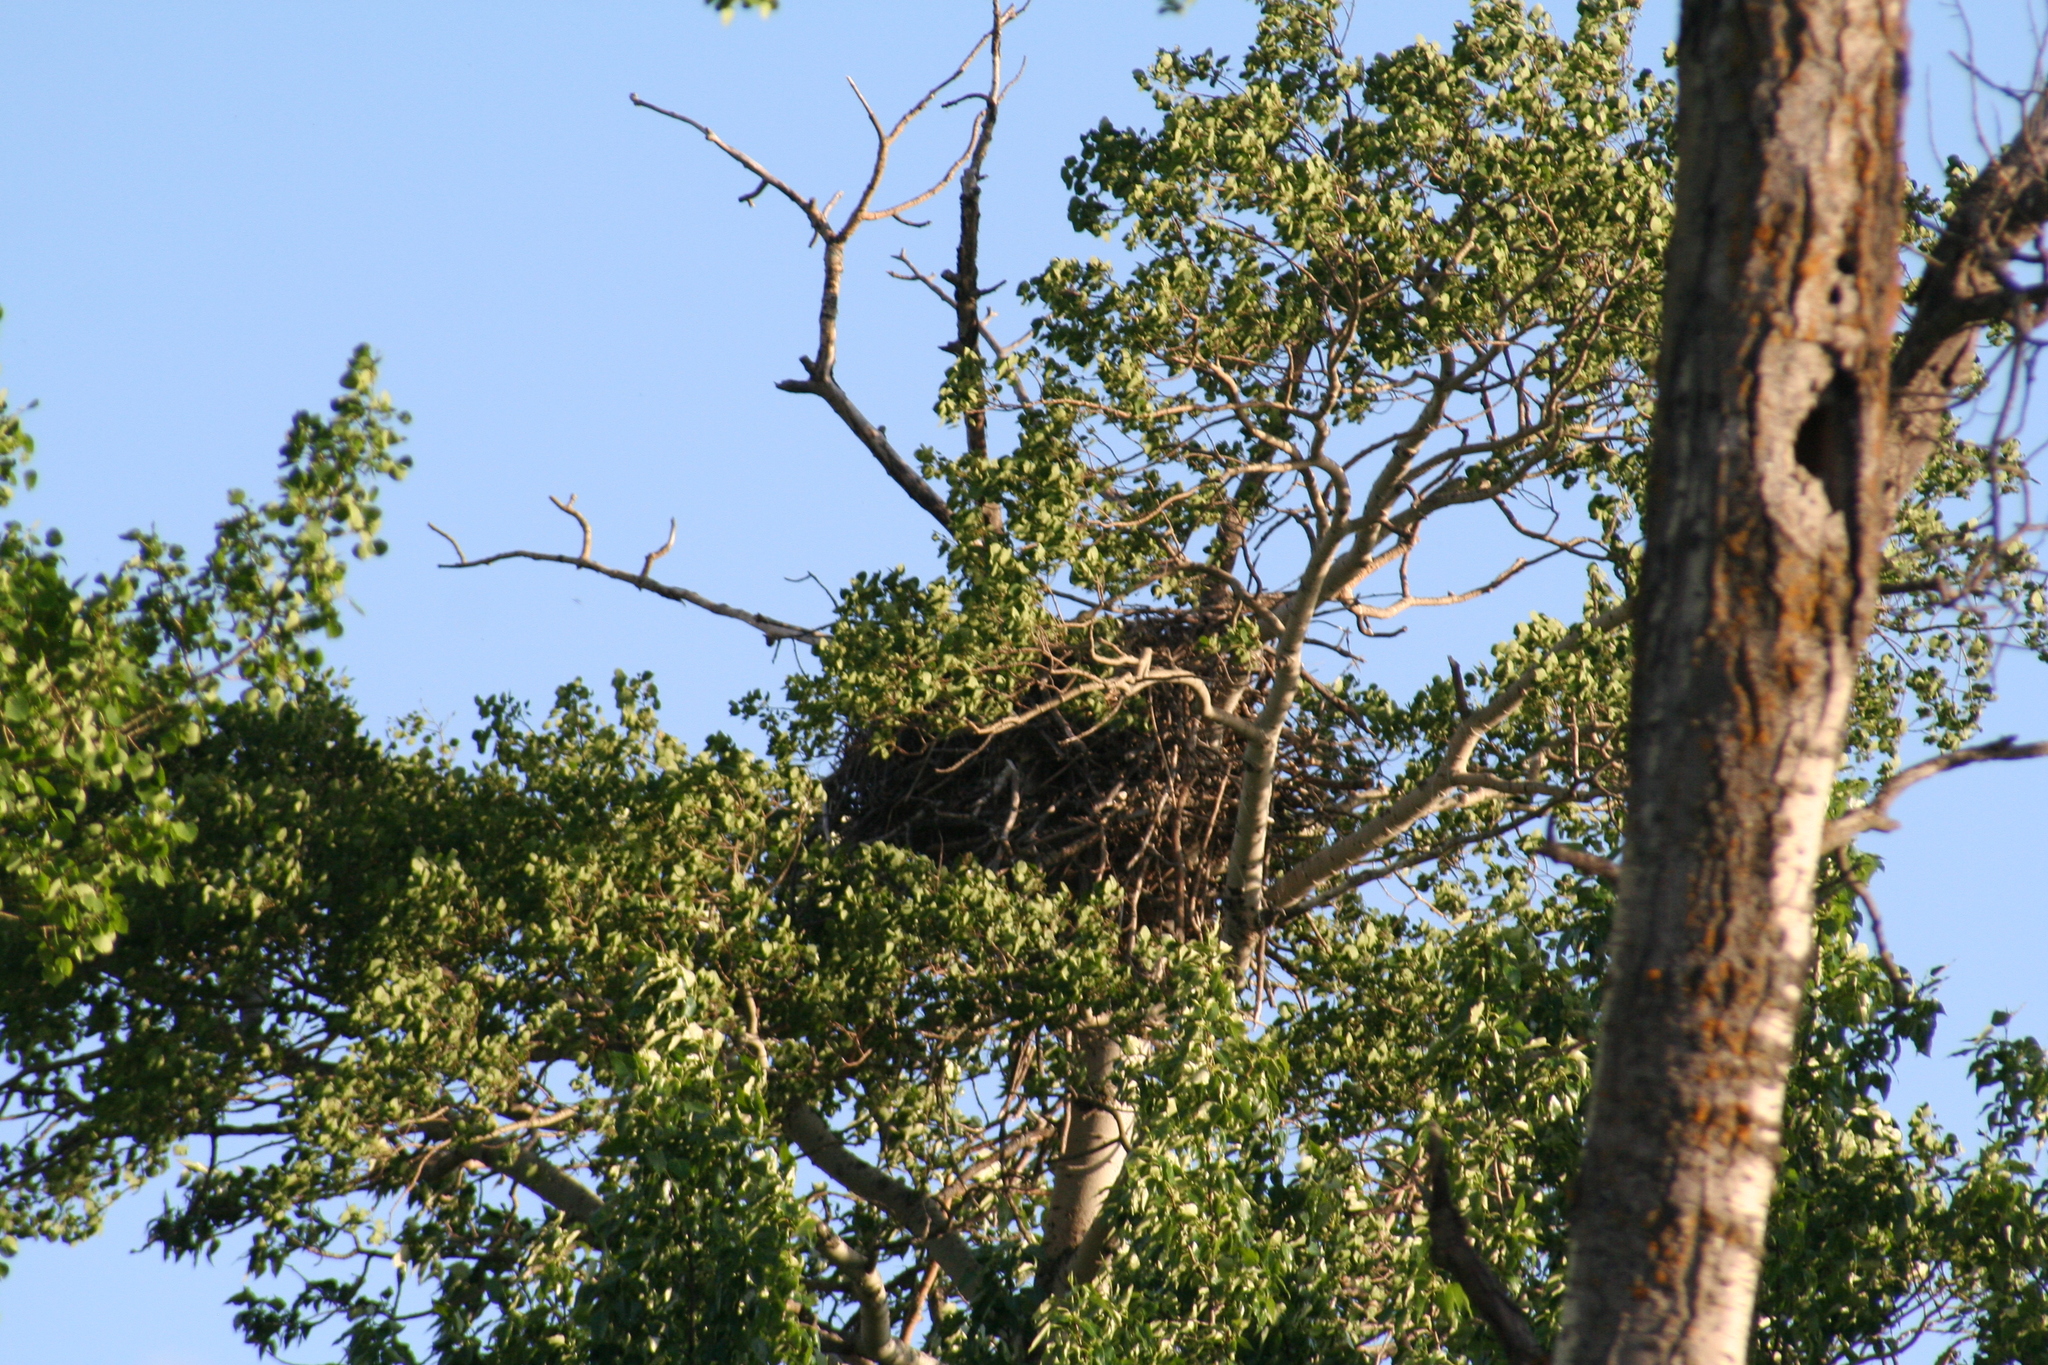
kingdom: Animalia
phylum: Chordata
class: Aves
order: Accipitriformes
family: Accipitridae
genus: Haliaeetus
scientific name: Haliaeetus leucocephalus
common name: Bald eagle
